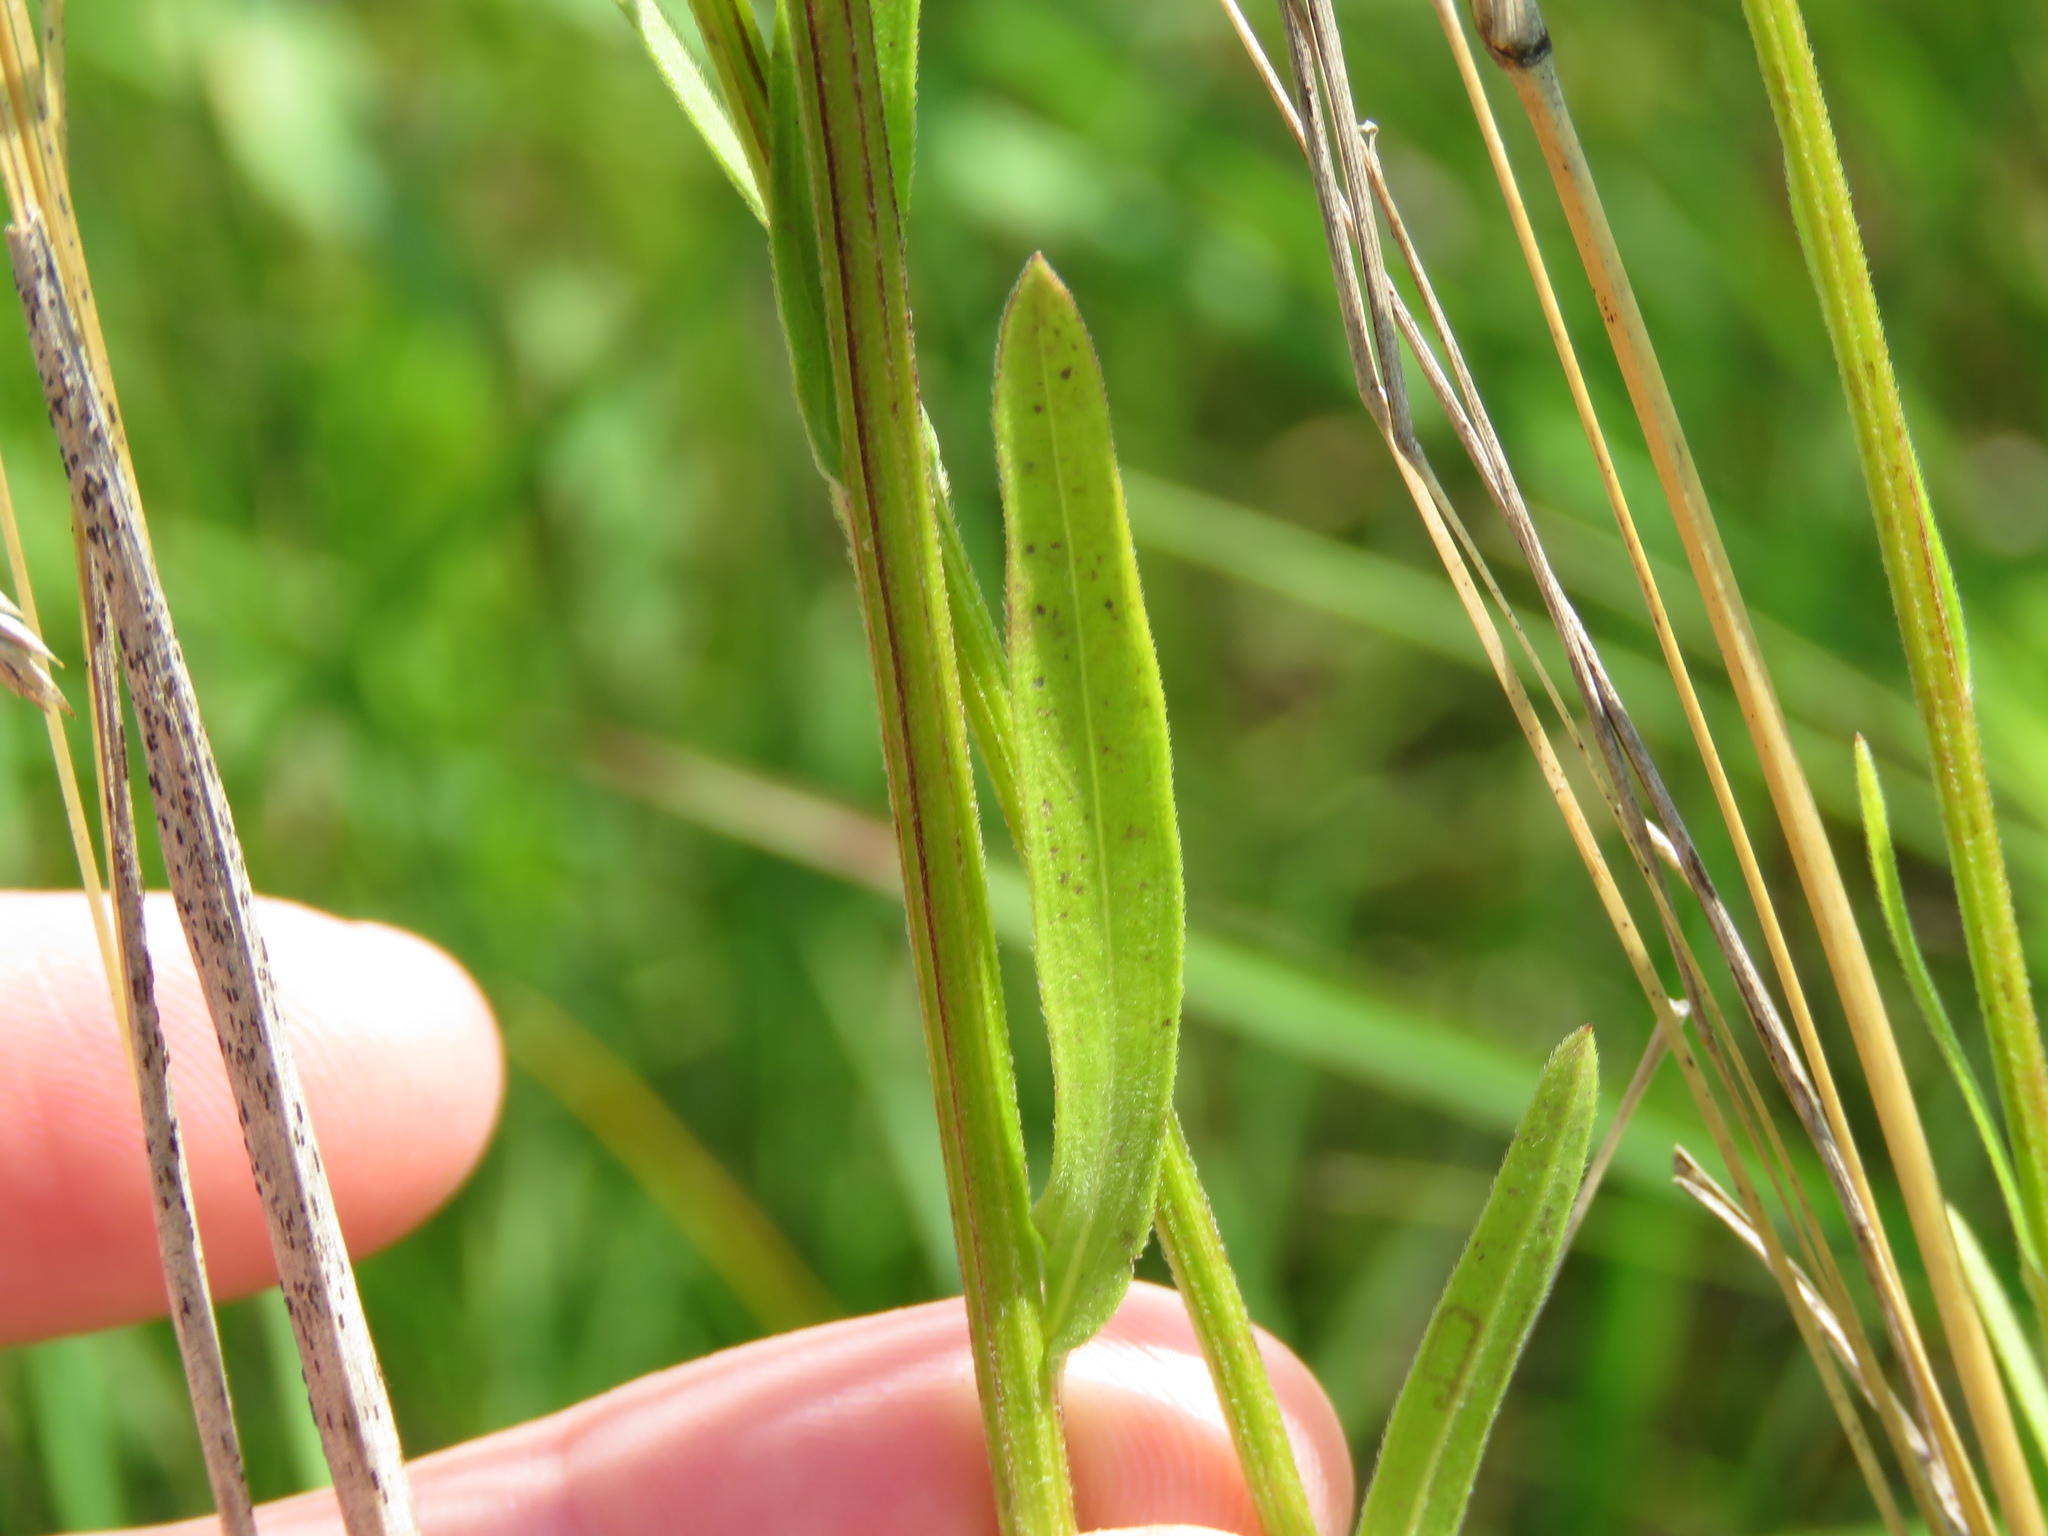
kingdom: Plantae
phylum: Tracheophyta
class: Magnoliopsida
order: Asterales
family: Asteraceae
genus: Erigeron
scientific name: Erigeron strigosus
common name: Common eastern fleabane
